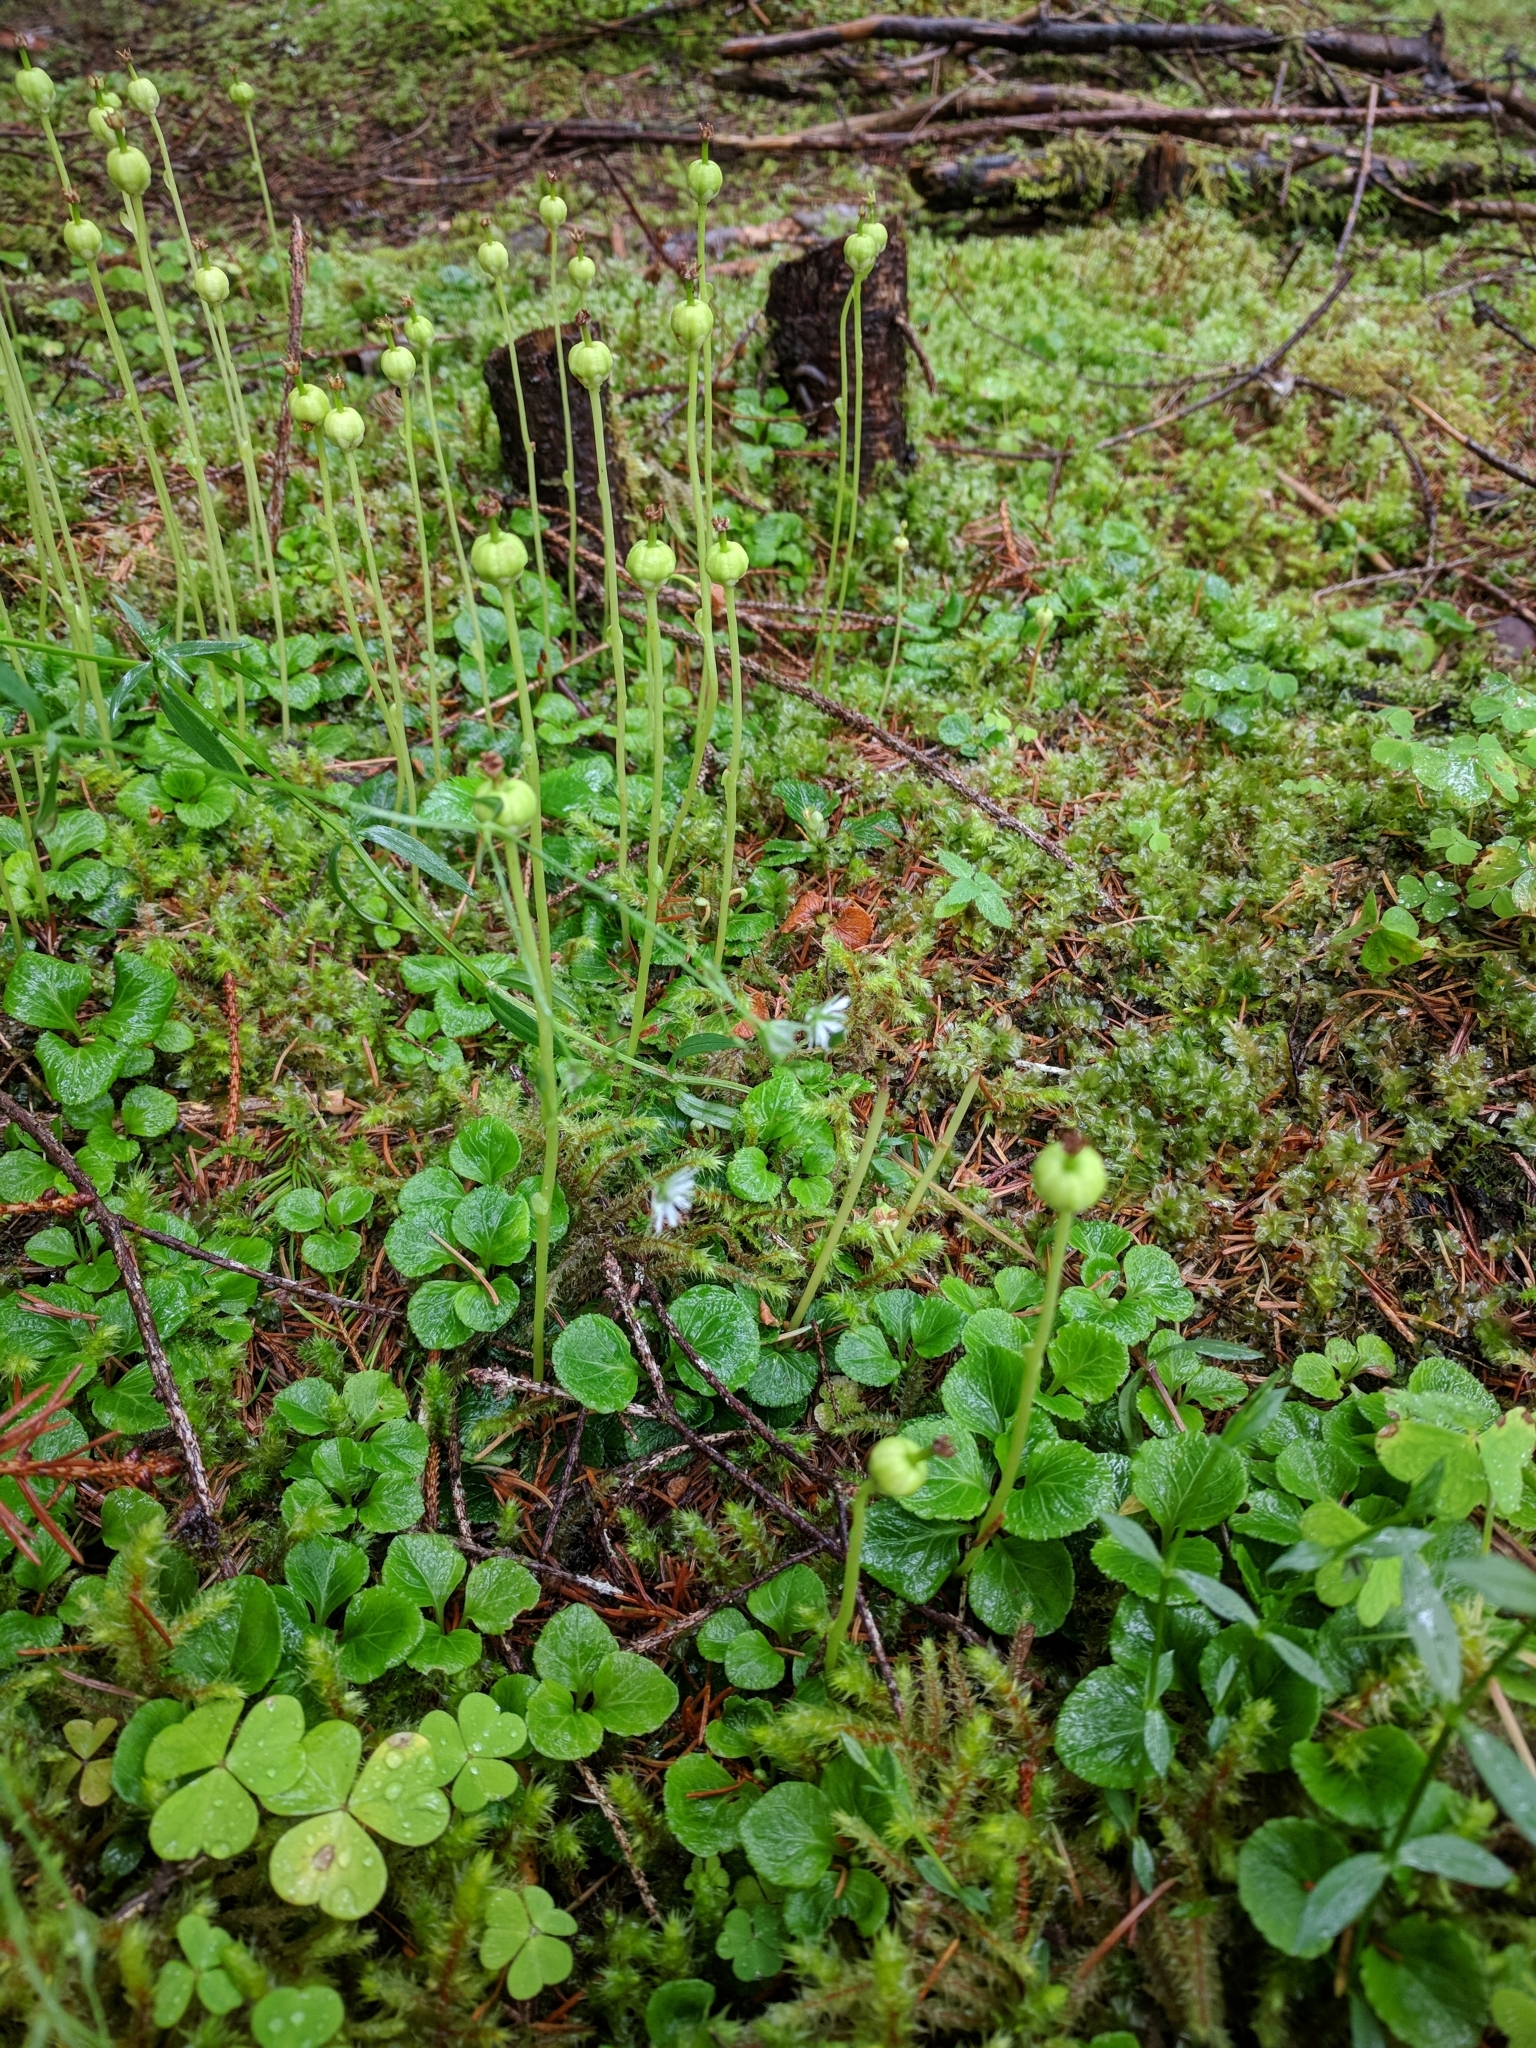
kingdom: Plantae
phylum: Tracheophyta
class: Magnoliopsida
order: Ericales
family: Ericaceae
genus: Moneses
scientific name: Moneses uniflora
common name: One-flowered wintergreen
